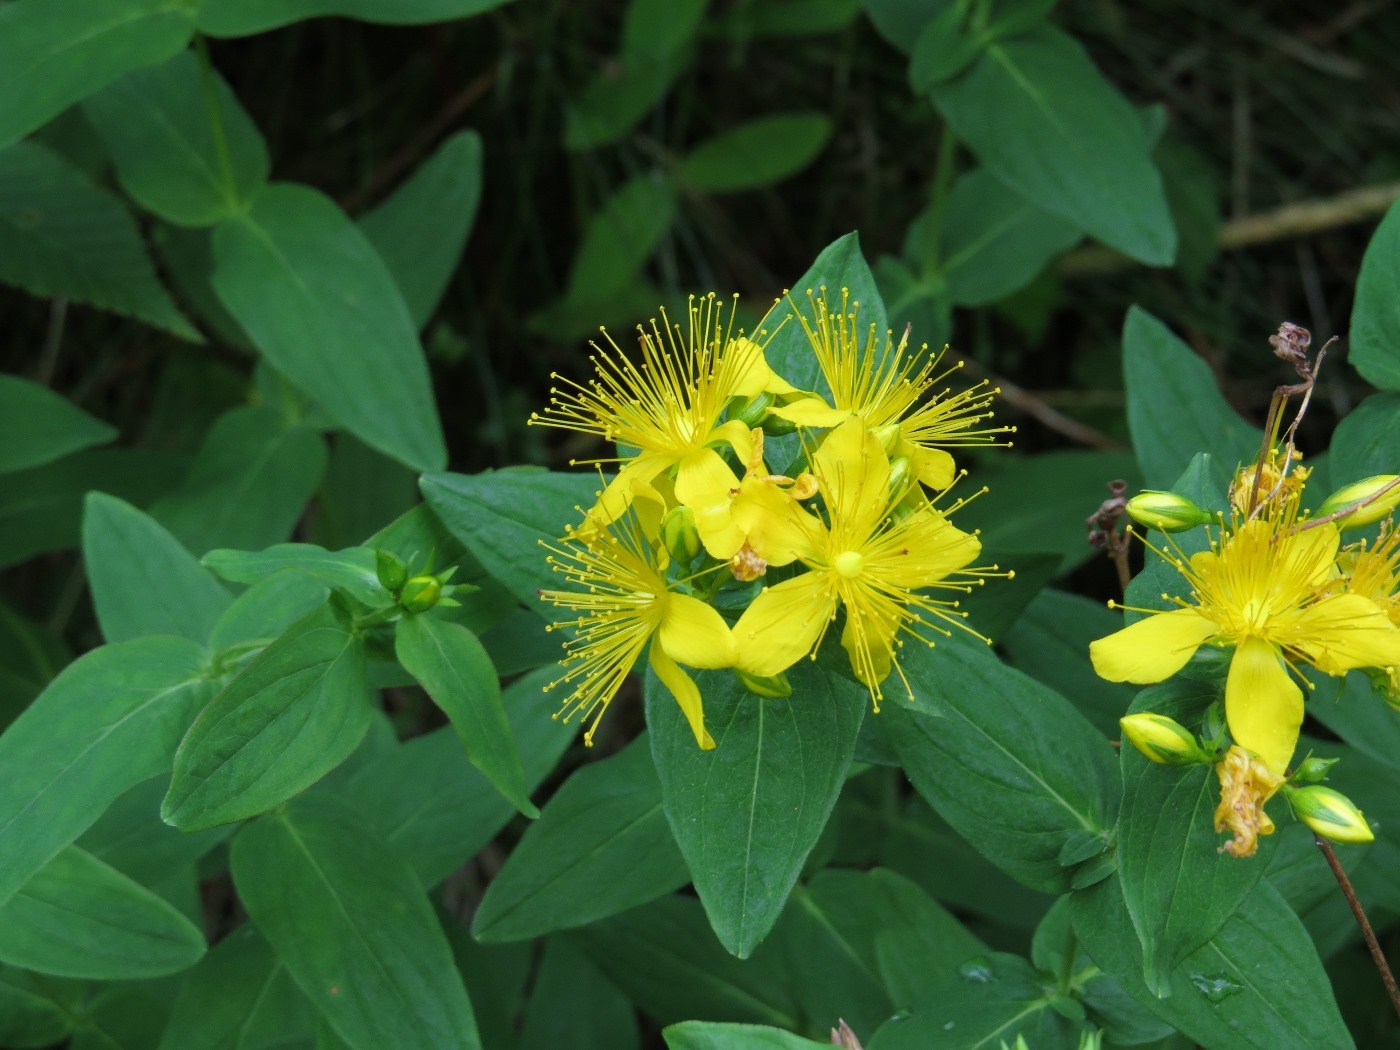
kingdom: Plantae
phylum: Tracheophyta
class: Magnoliopsida
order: Malpighiales
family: Hypericaceae
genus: Hypericum
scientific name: Hypericum graveolens
